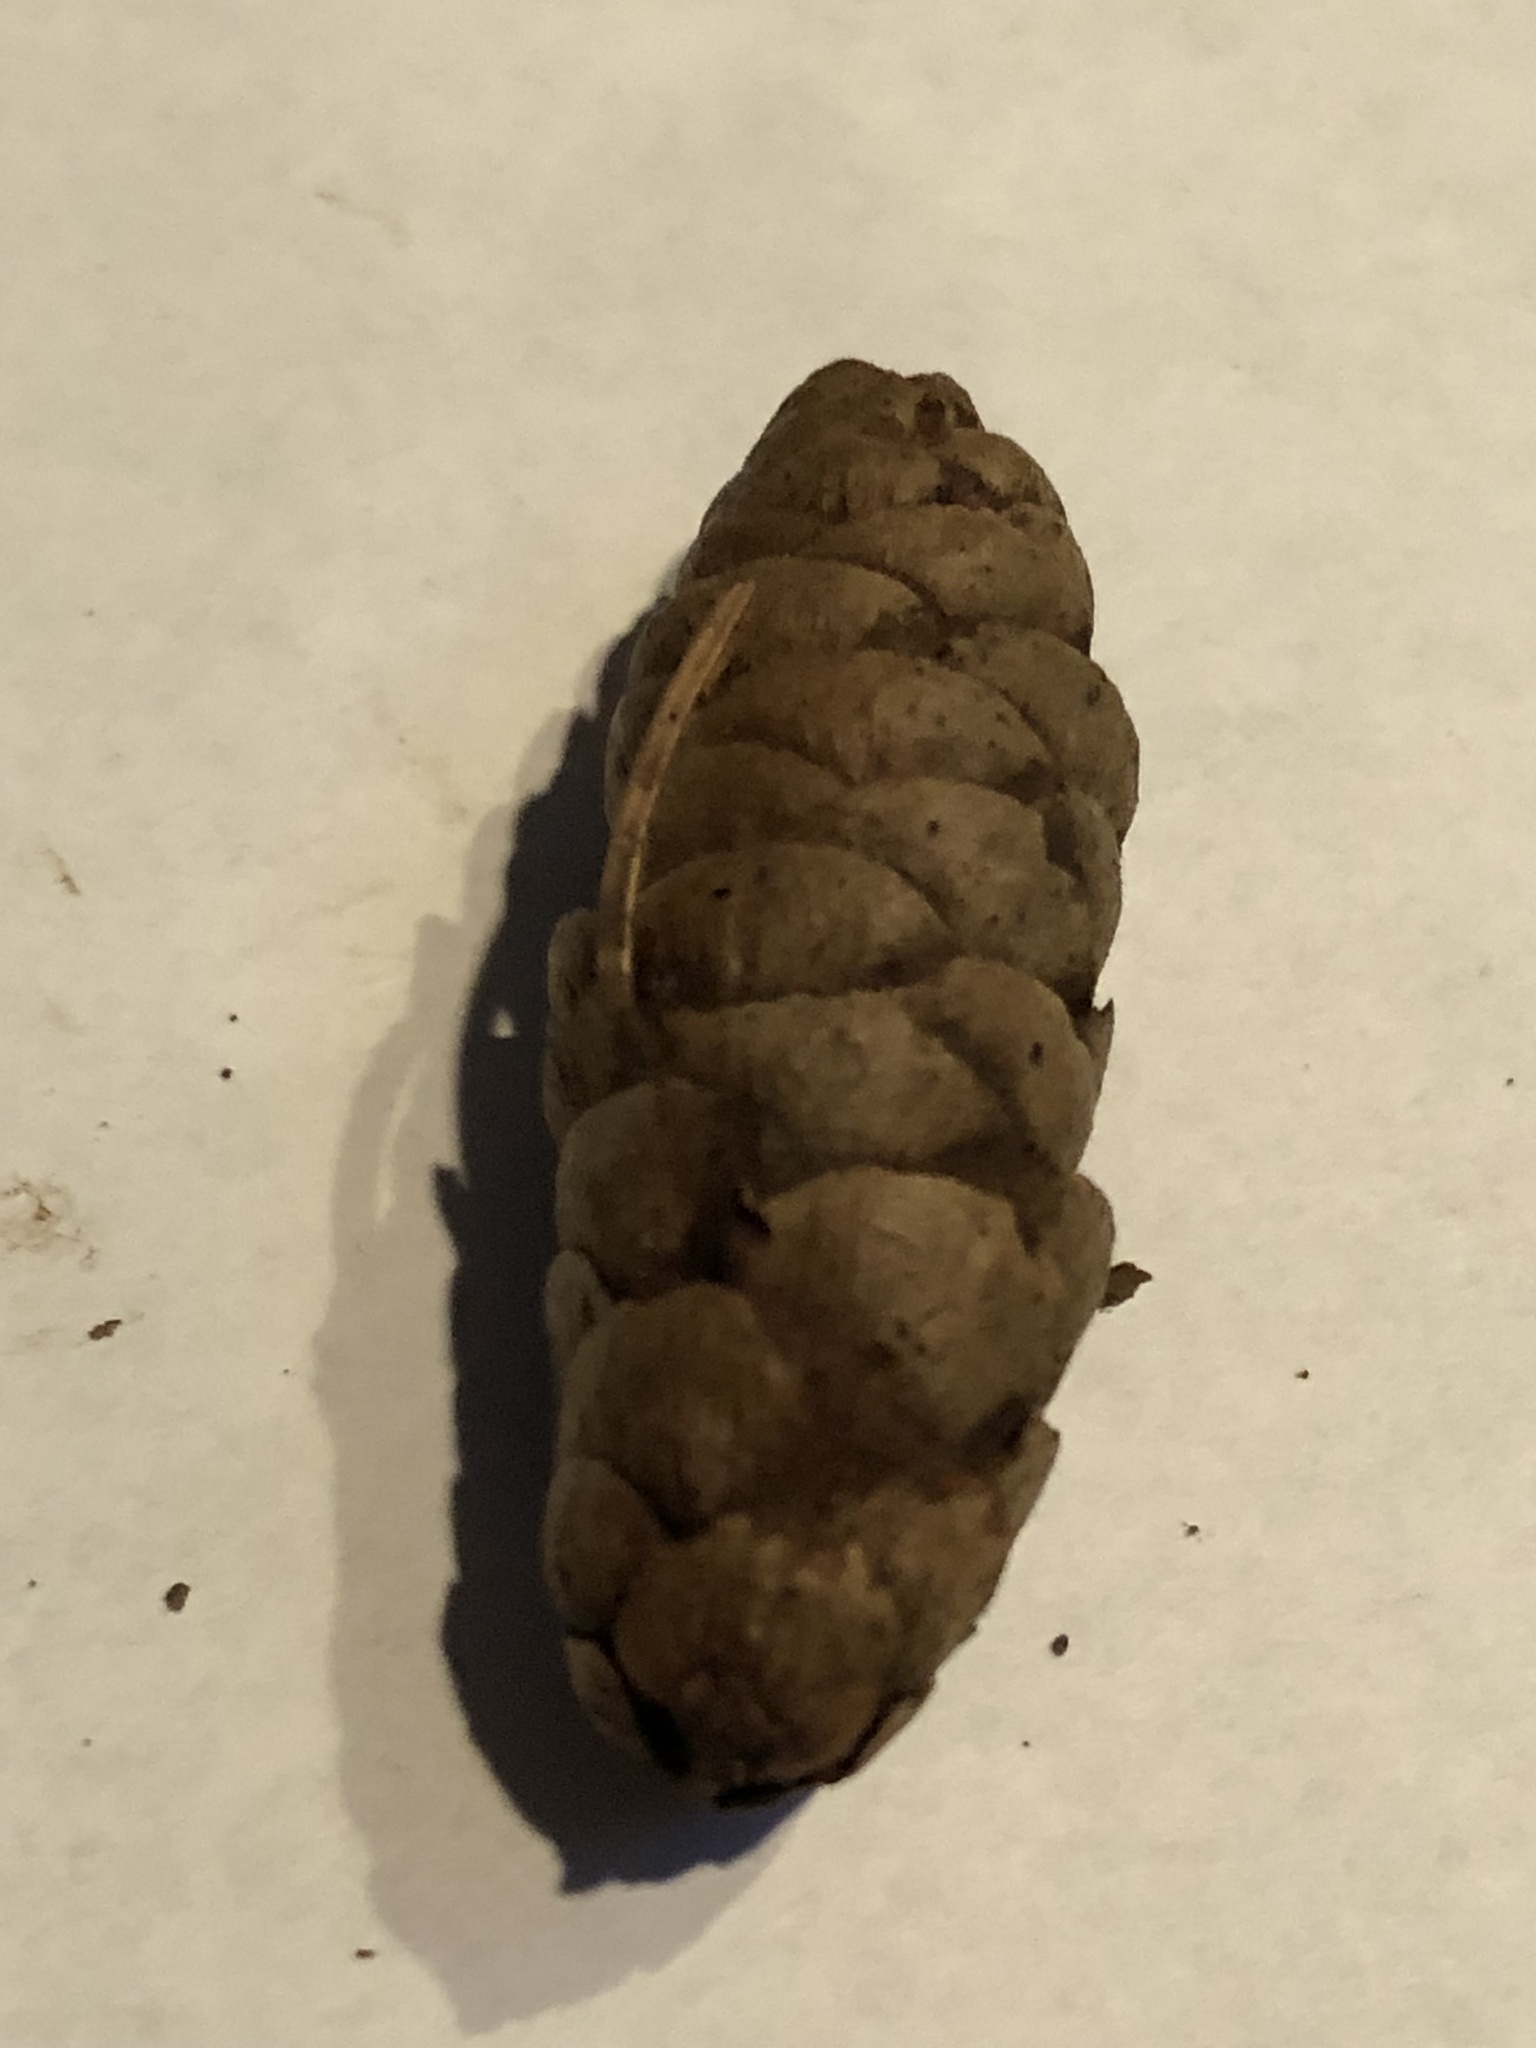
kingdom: Plantae
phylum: Tracheophyta
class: Pinopsida
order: Pinales
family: Pinaceae
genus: Picea
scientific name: Picea glauca
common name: White spruce
